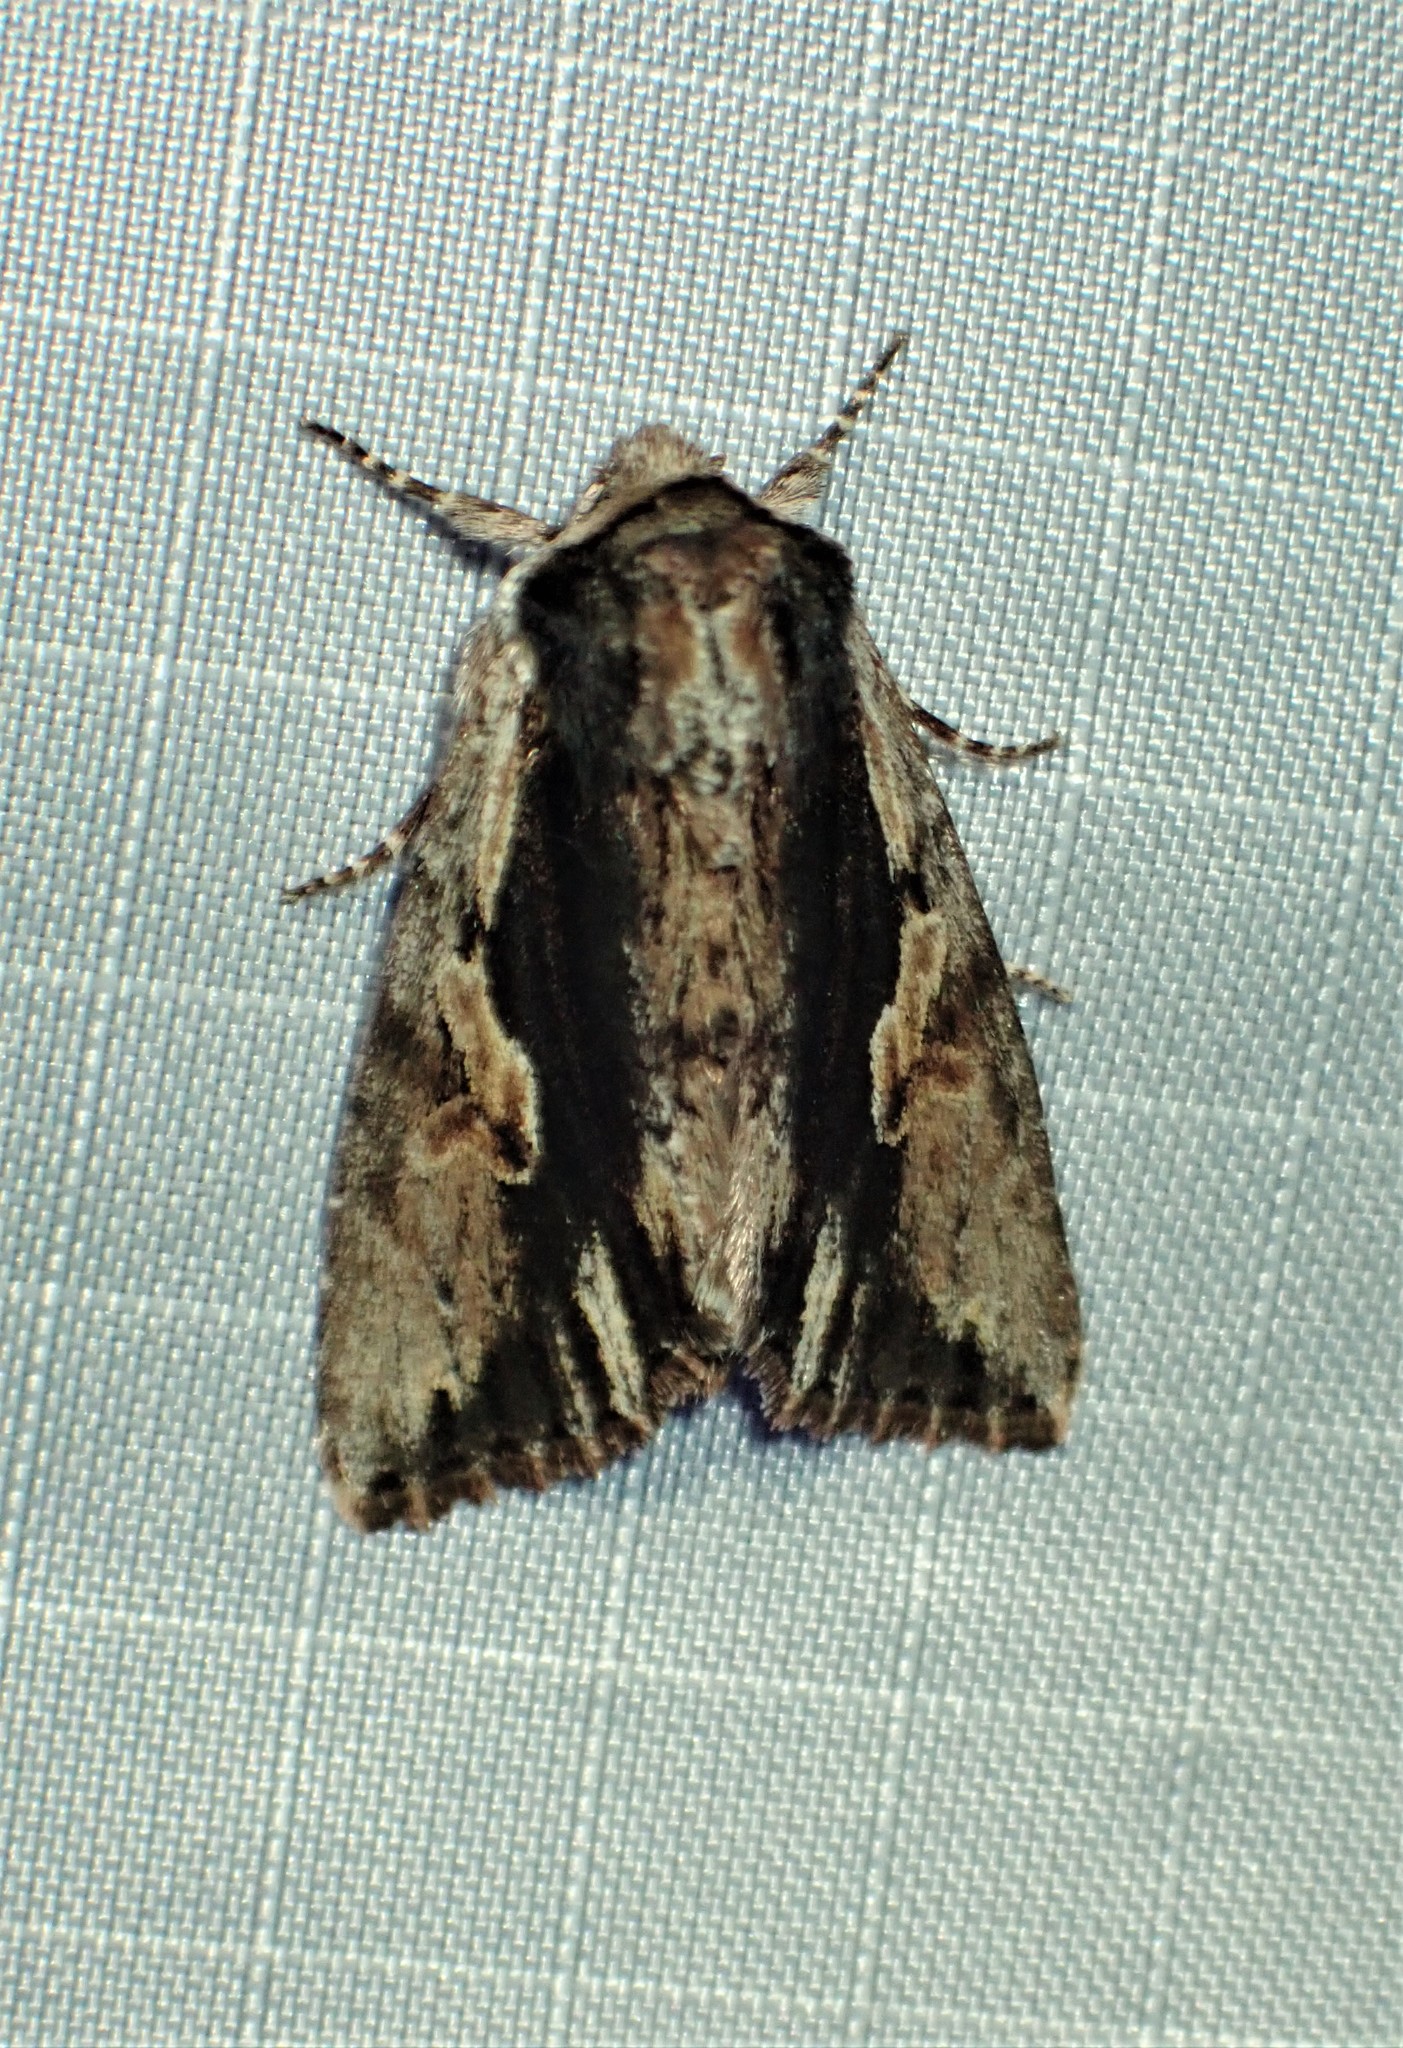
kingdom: Animalia
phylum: Arthropoda
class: Insecta
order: Lepidoptera
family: Noctuidae
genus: Achatia
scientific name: Achatia evicta
